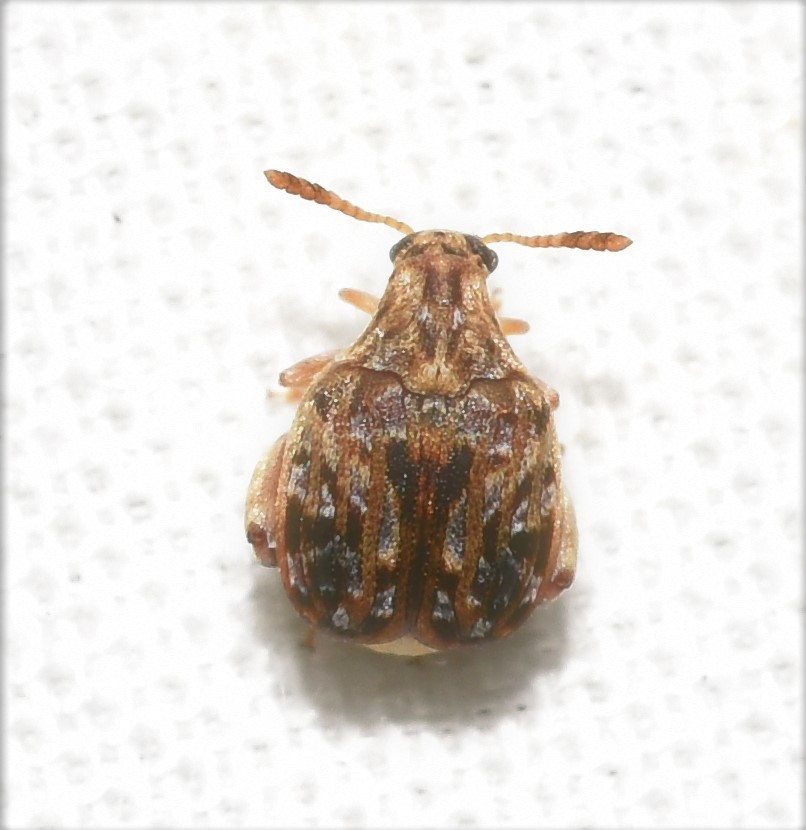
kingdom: Animalia
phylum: Arthropoda
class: Insecta
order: Coleoptera
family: Chrysomelidae
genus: Gibbobruchus
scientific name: Gibbobruchus mimus
